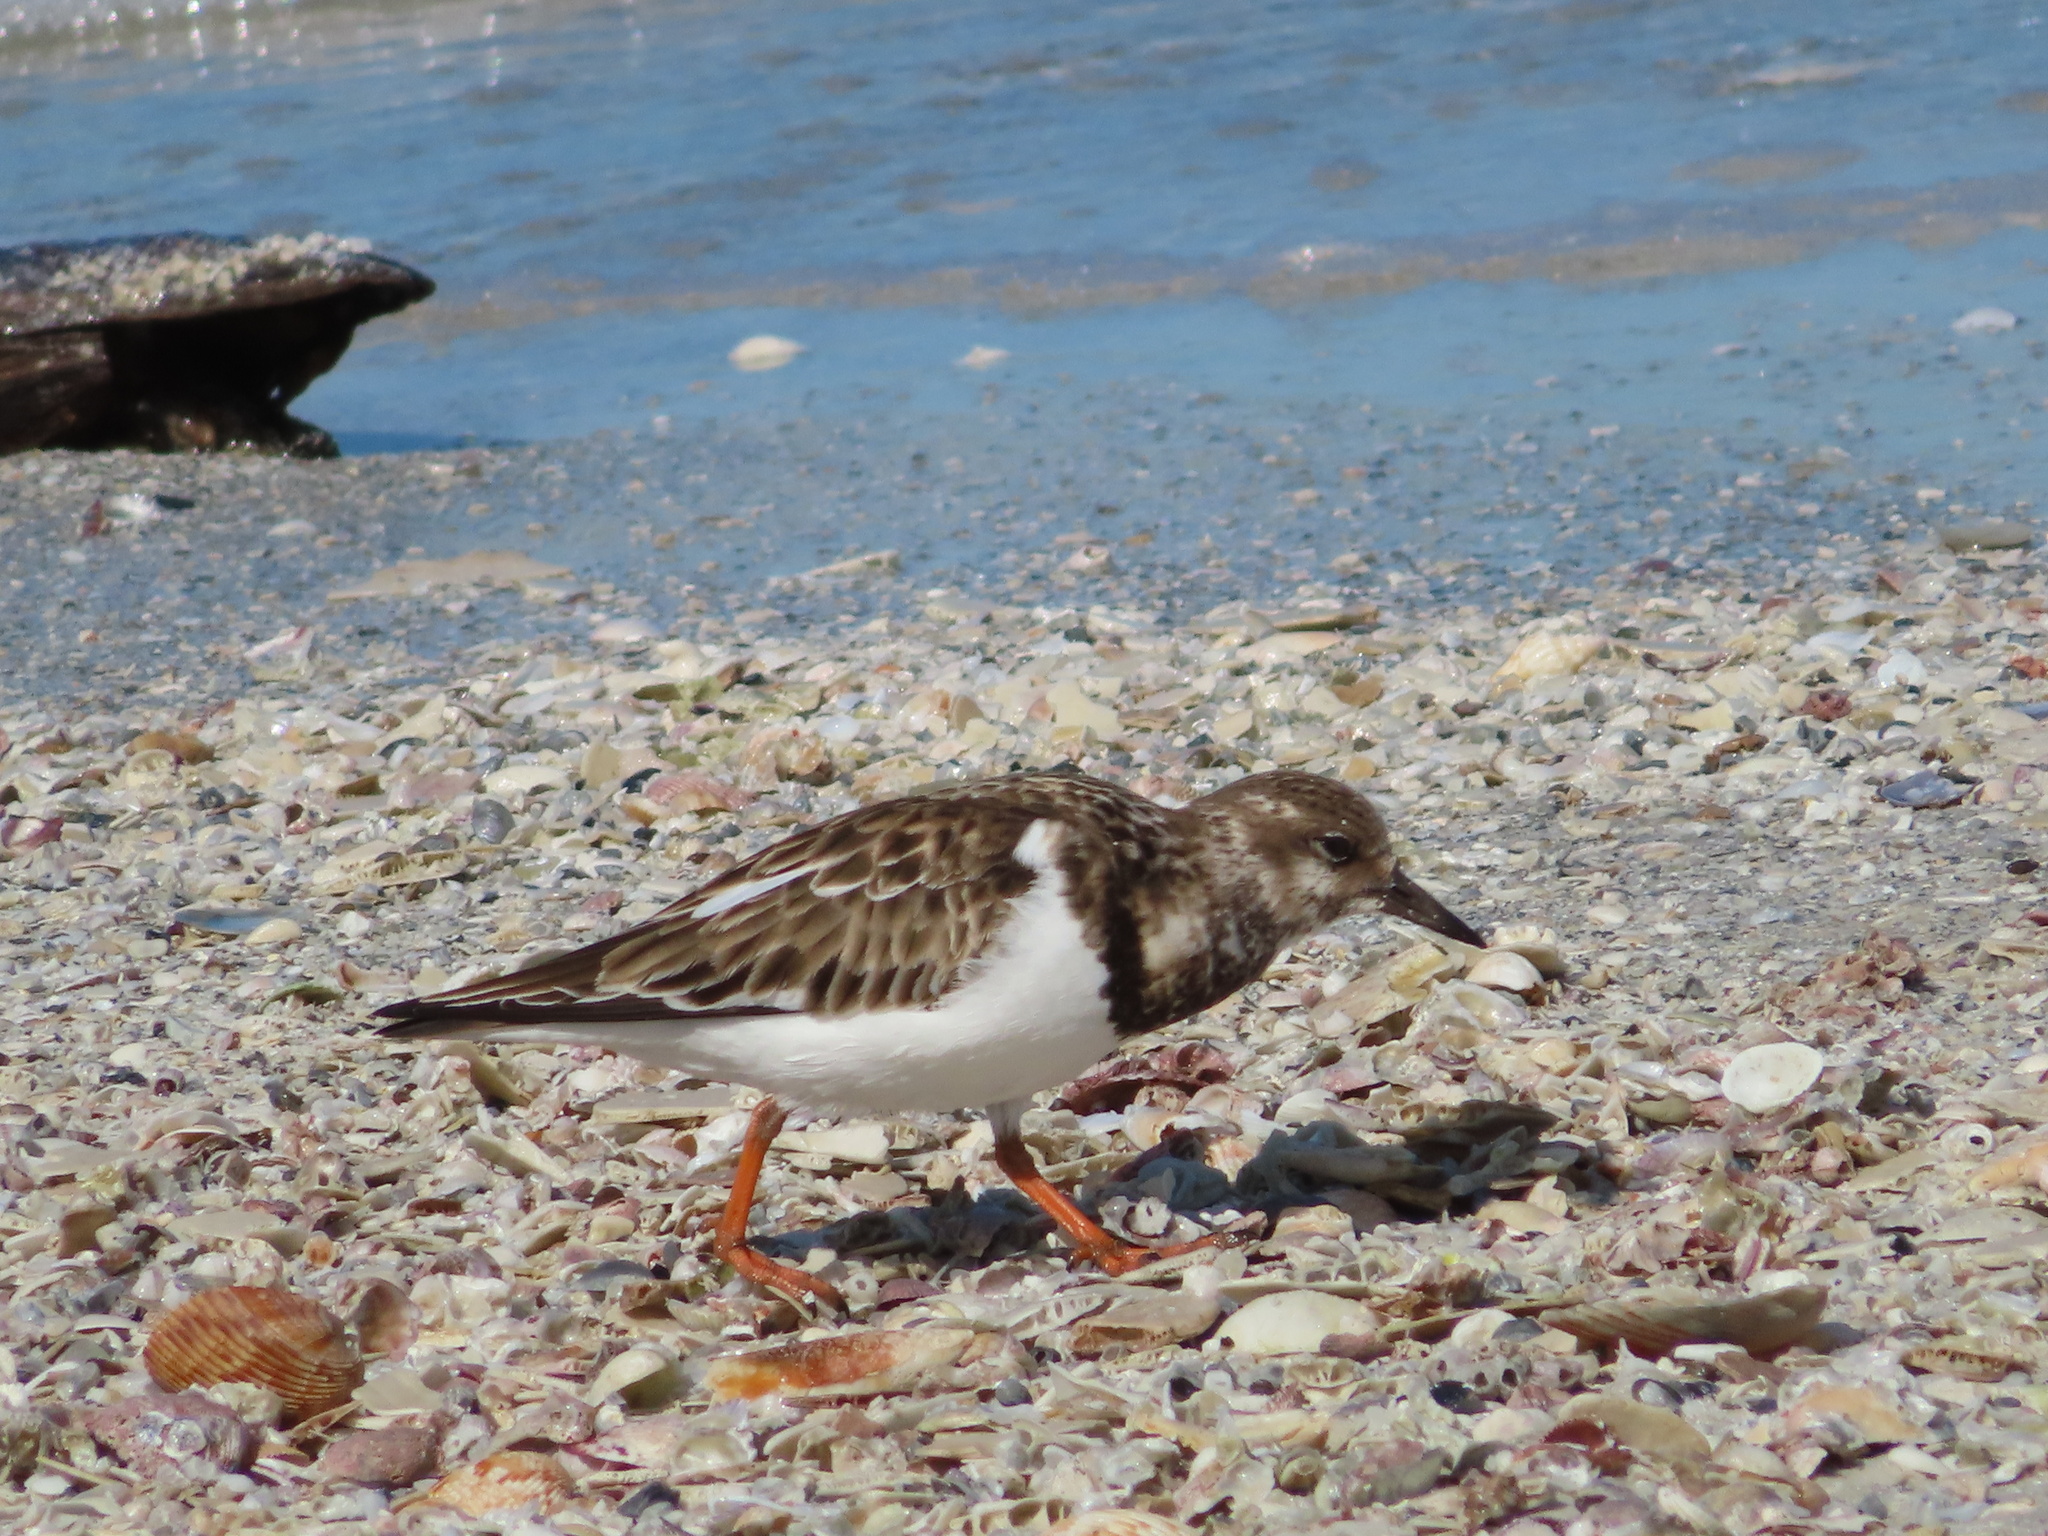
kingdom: Animalia
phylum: Chordata
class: Aves
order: Charadriiformes
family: Scolopacidae
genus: Arenaria
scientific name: Arenaria interpres
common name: Ruddy turnstone
